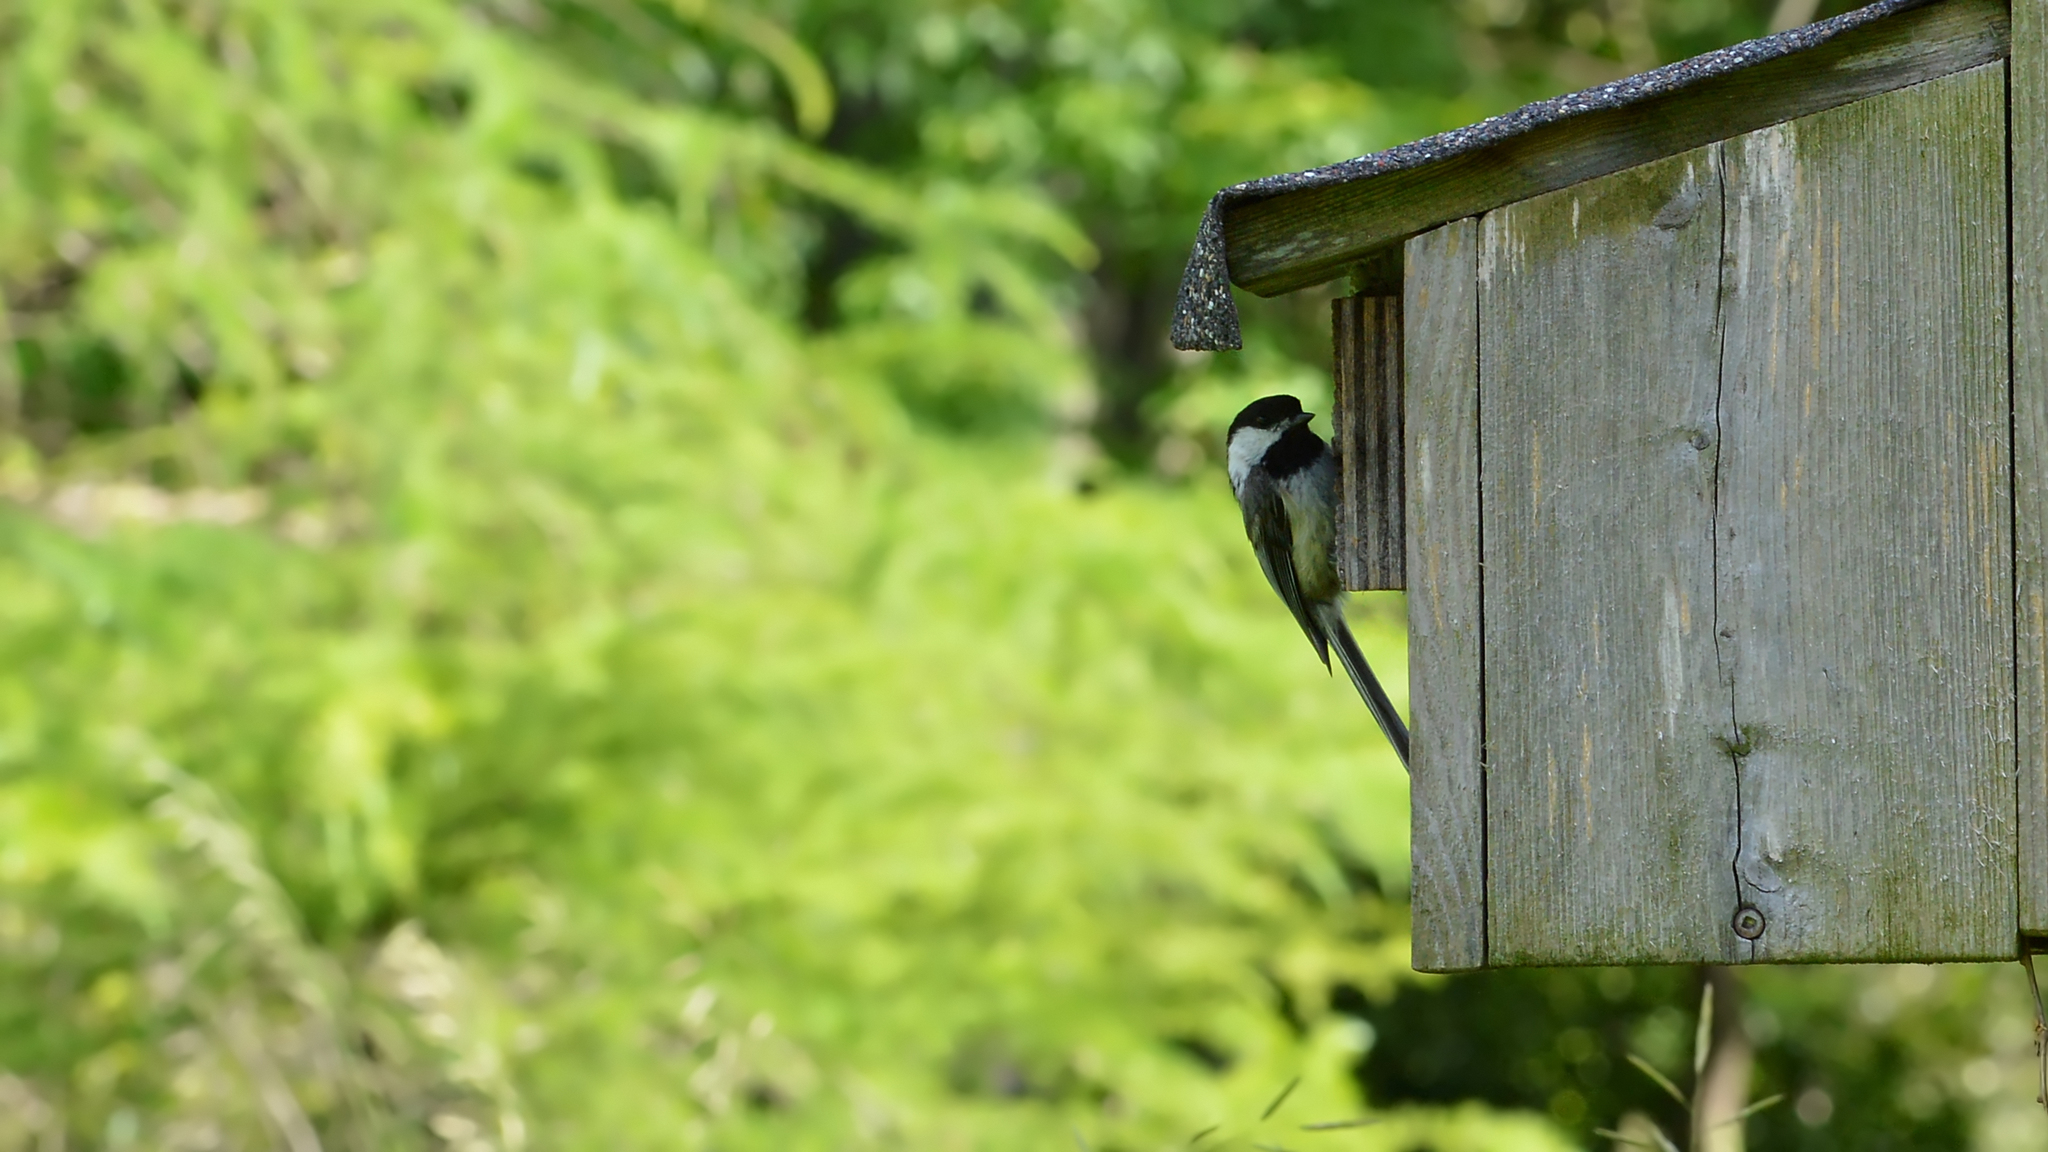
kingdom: Animalia
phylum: Chordata
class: Aves
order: Passeriformes
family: Paridae
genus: Poecile
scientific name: Poecile atricapillus
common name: Black-capped chickadee
